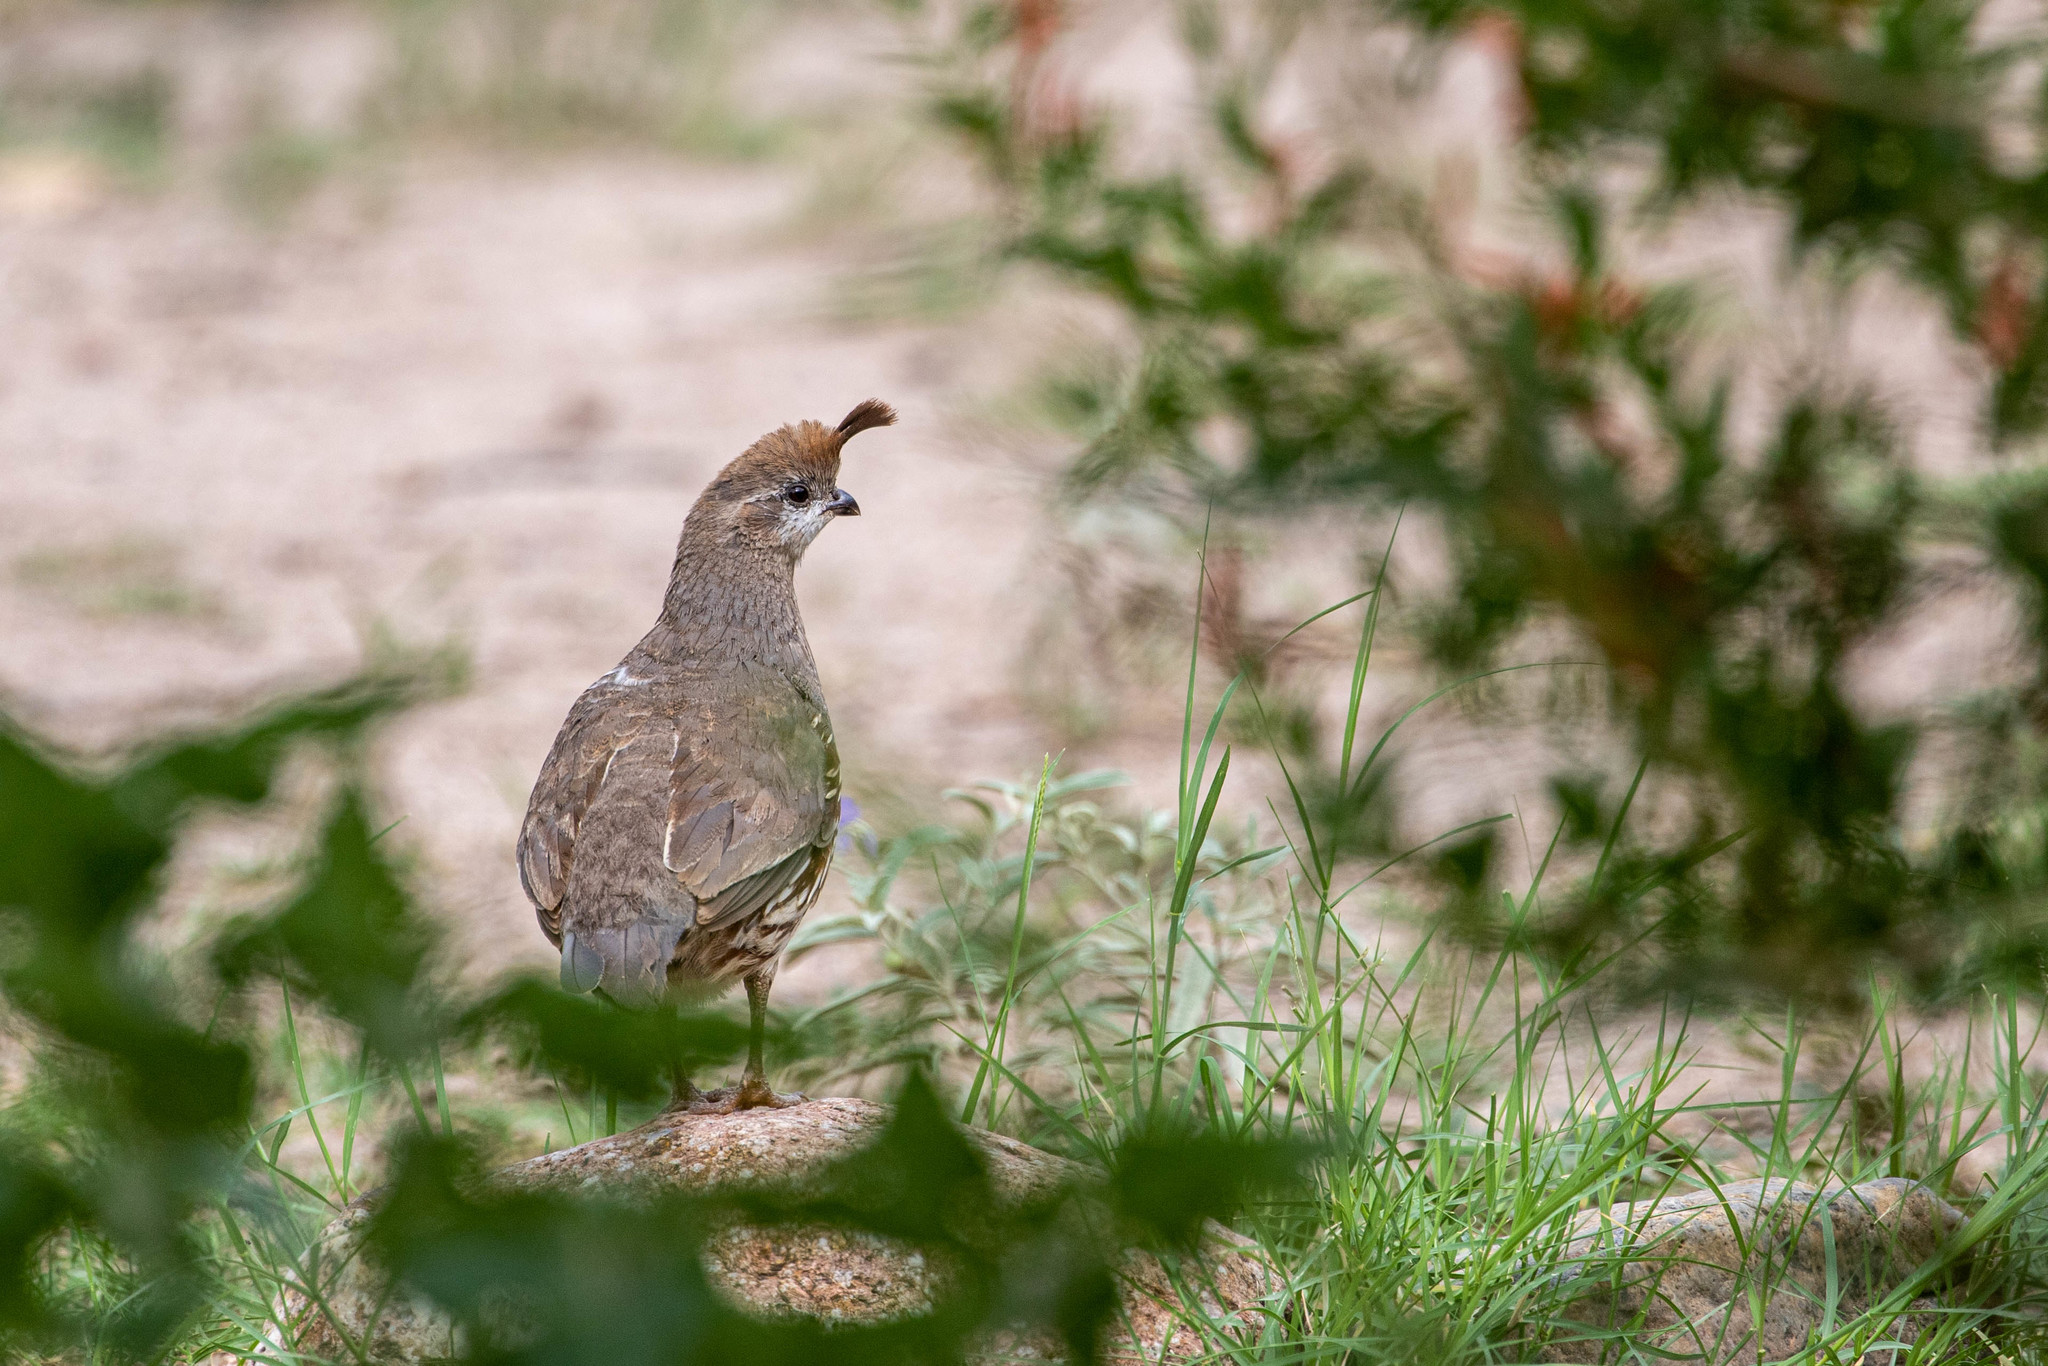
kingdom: Animalia
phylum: Chordata
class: Aves
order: Galliformes
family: Odontophoridae
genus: Callipepla
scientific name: Callipepla gambelii
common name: Gambel's quail
